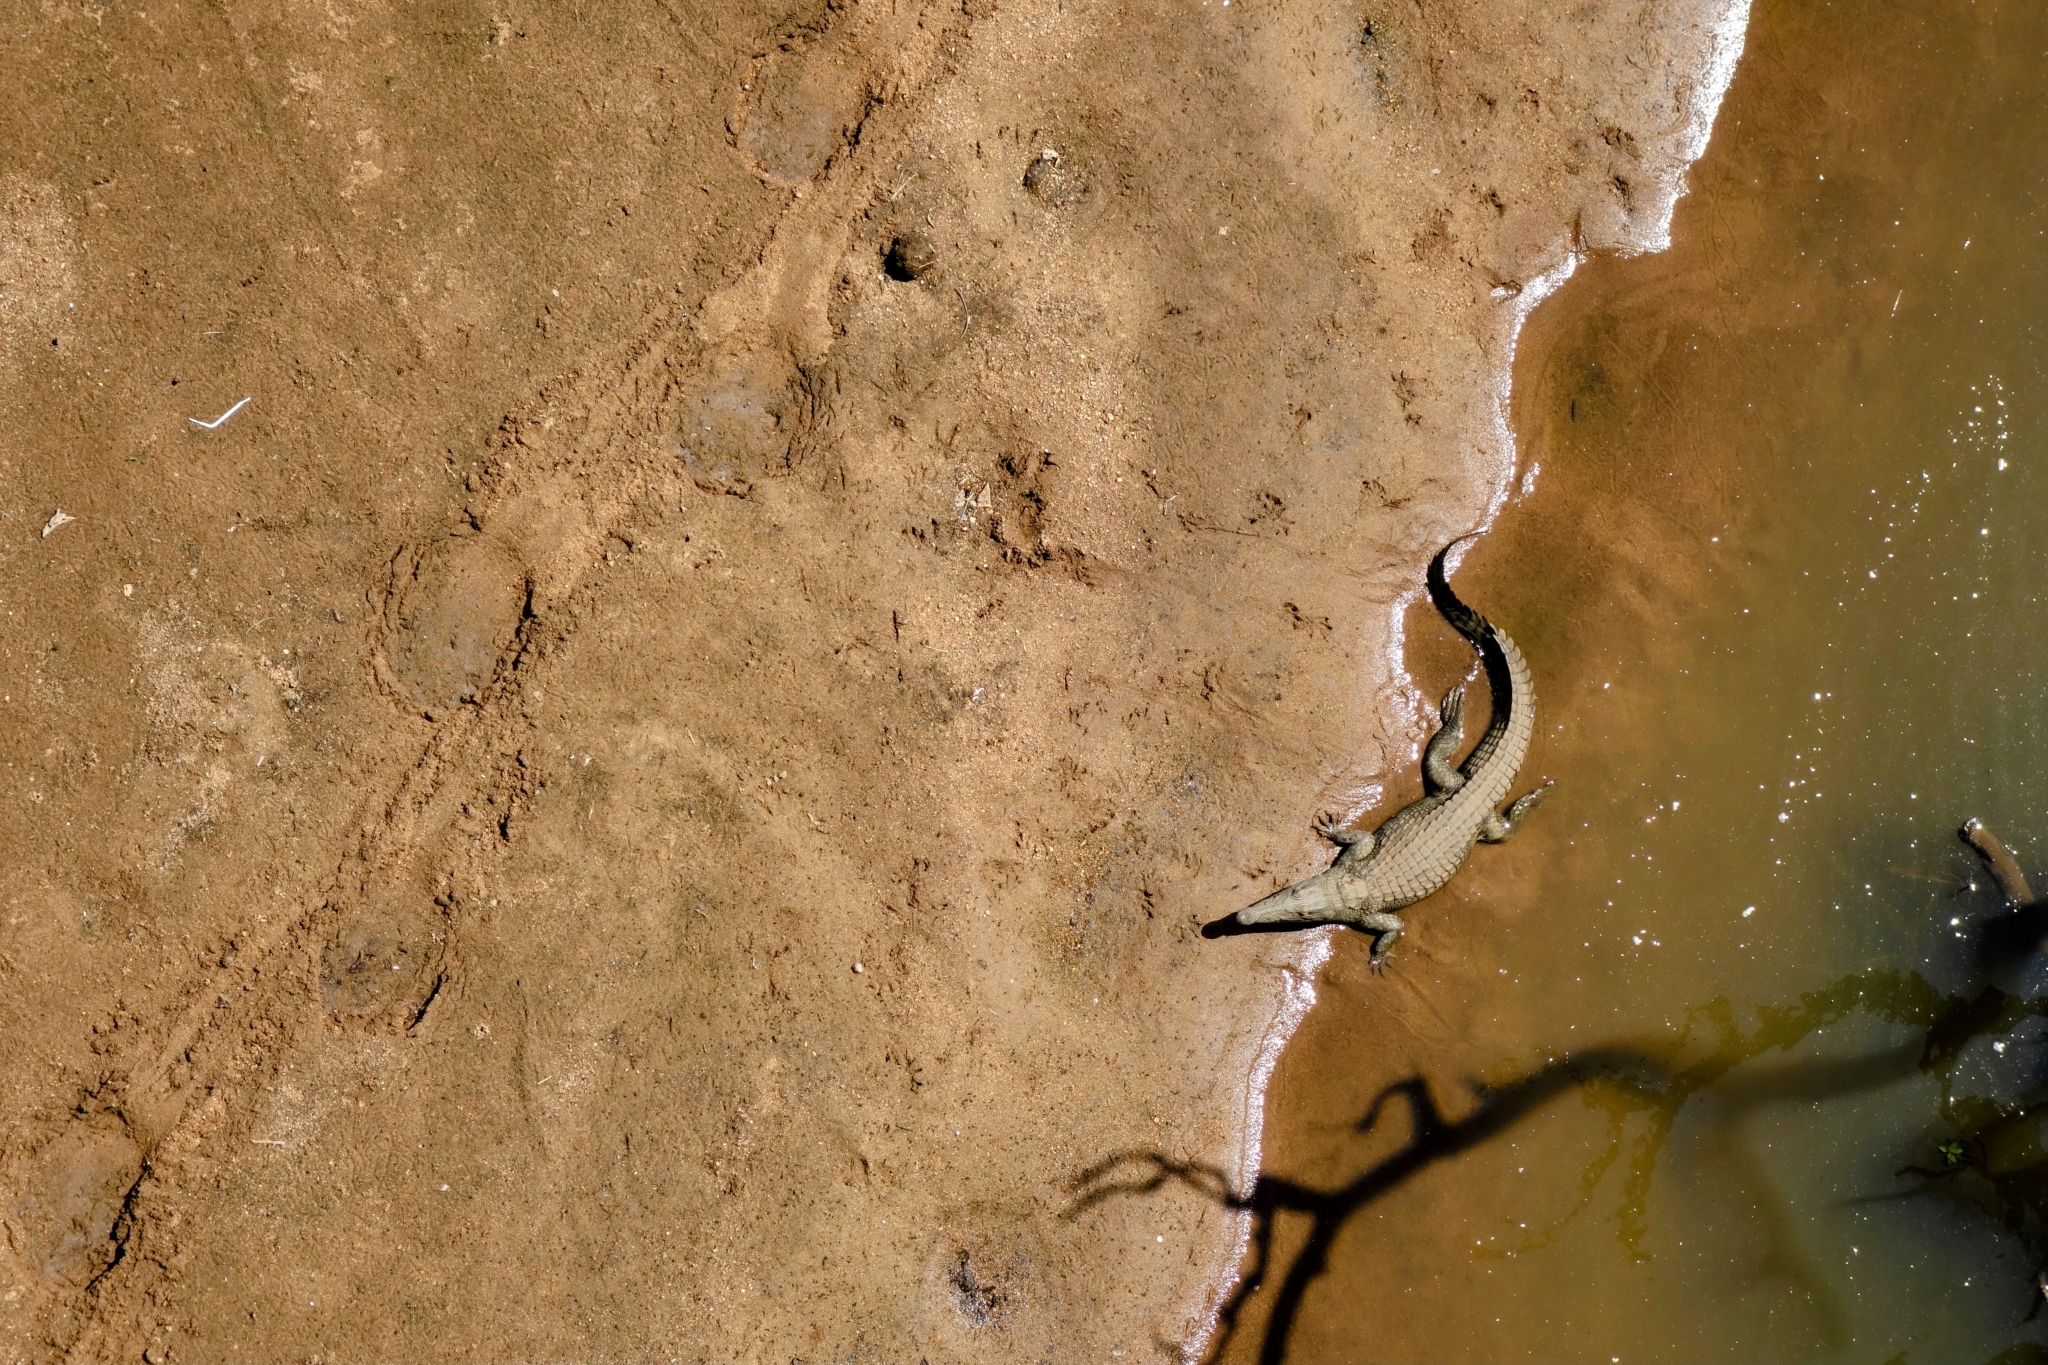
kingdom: Animalia
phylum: Chordata
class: Crocodylia
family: Crocodylidae
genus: Crocodylus
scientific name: Crocodylus niloticus
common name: Nile crocodile
